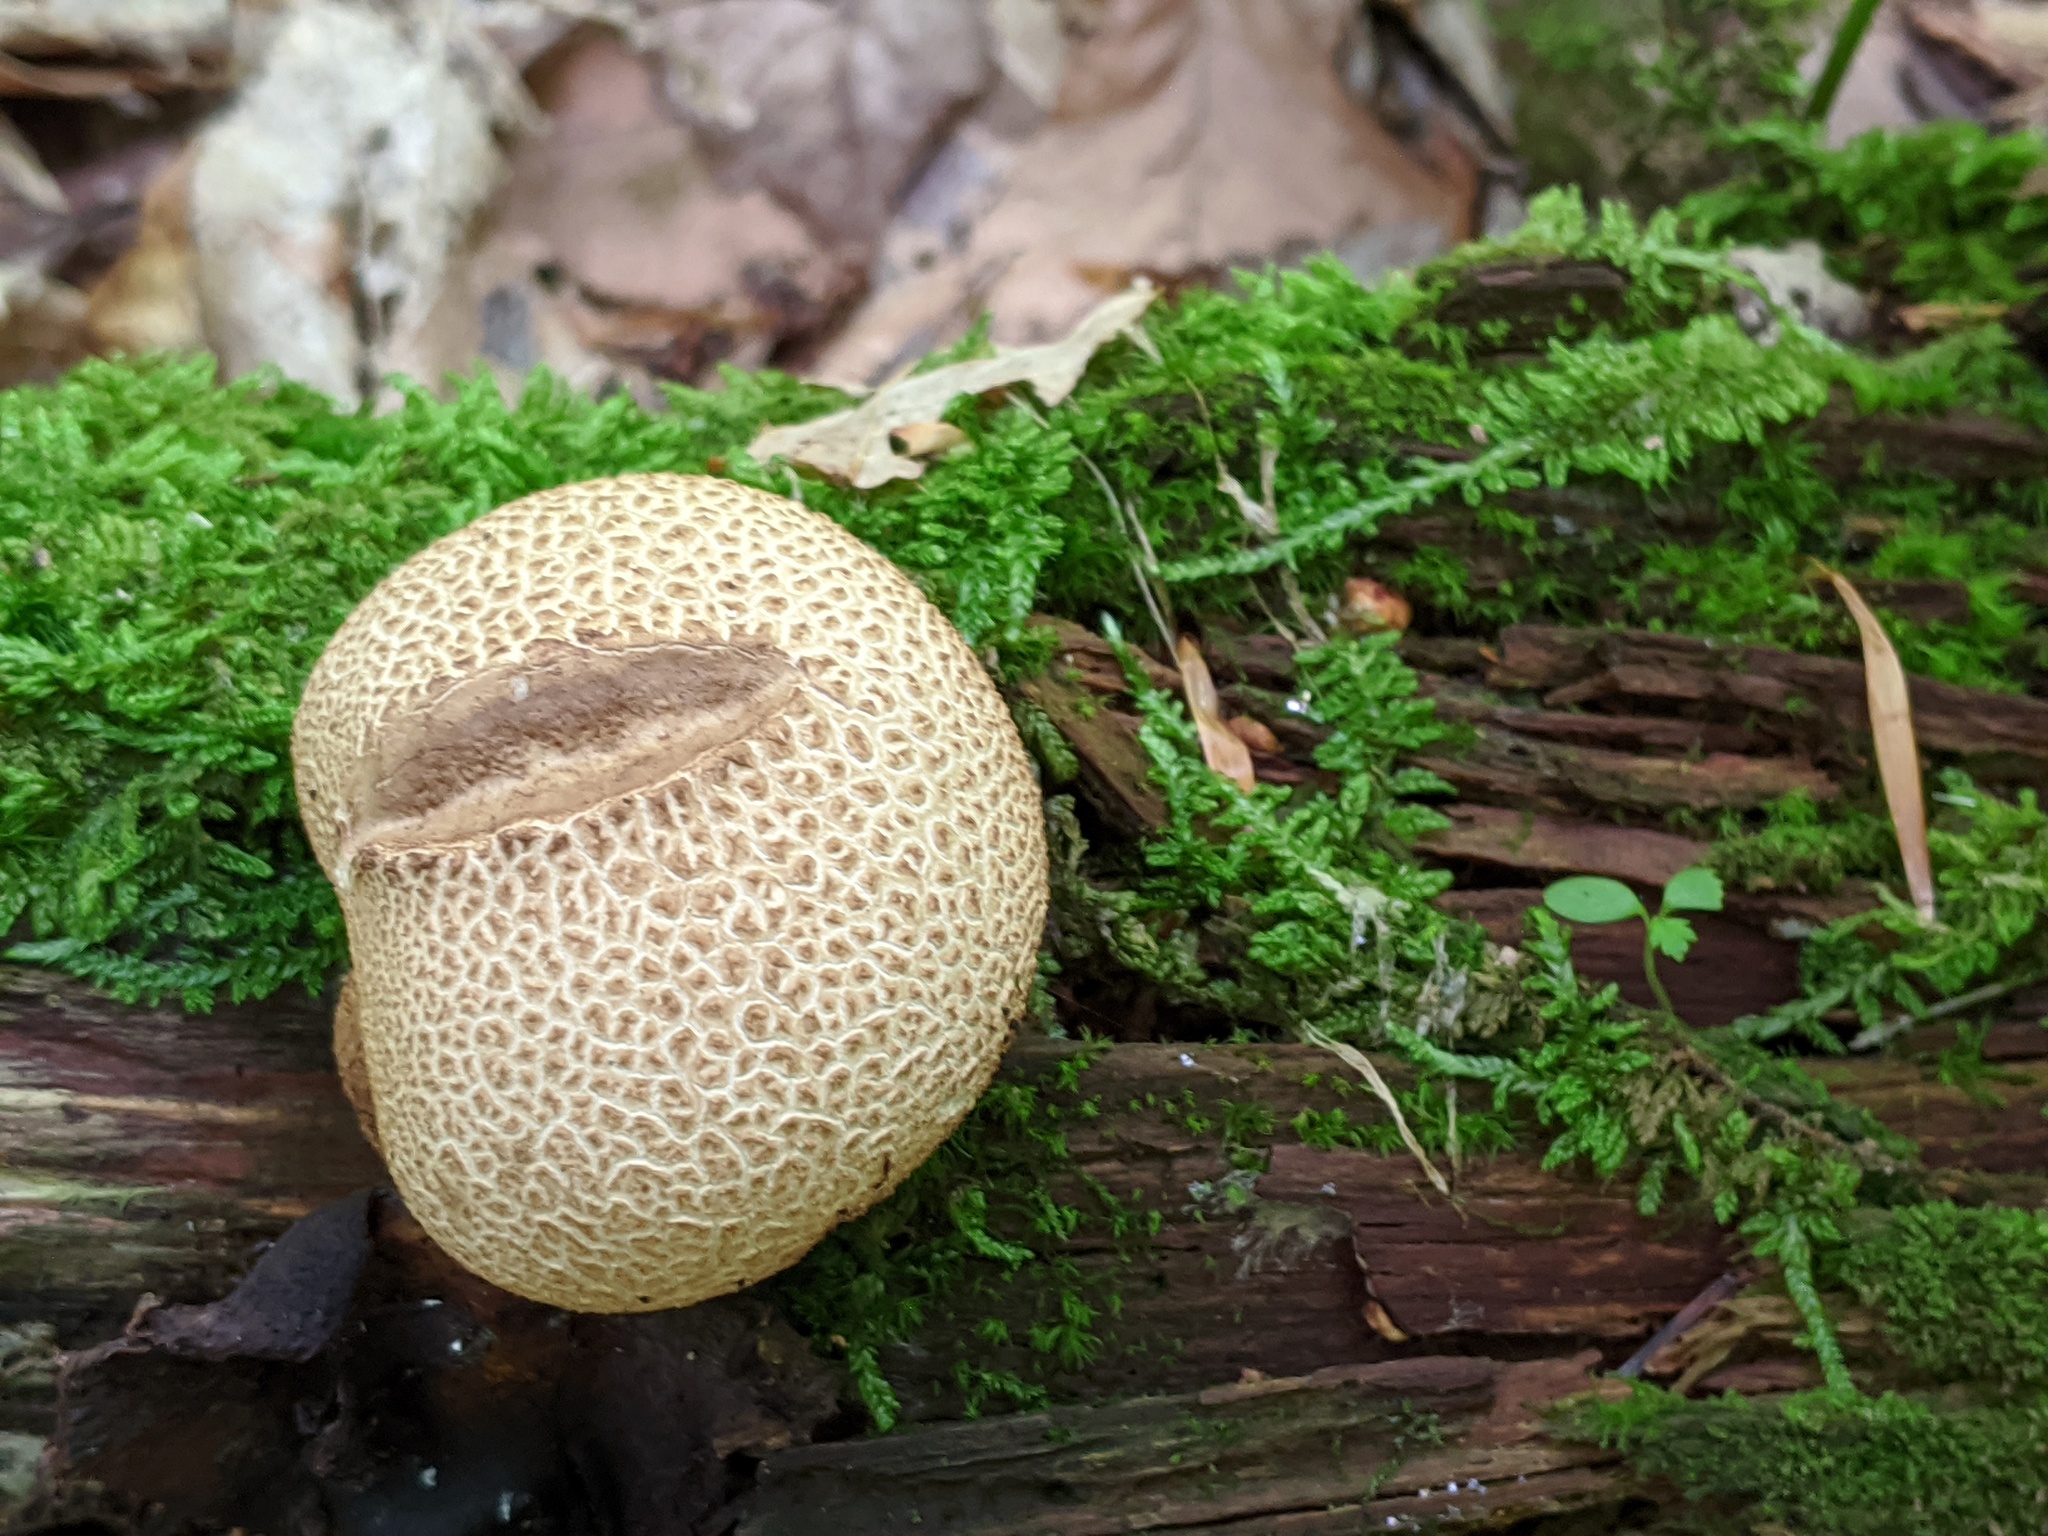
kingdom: Fungi
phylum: Basidiomycota
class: Agaricomycetes
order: Boletales
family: Sclerodermataceae
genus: Scleroderma
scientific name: Scleroderma citrinum
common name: Common earthball
